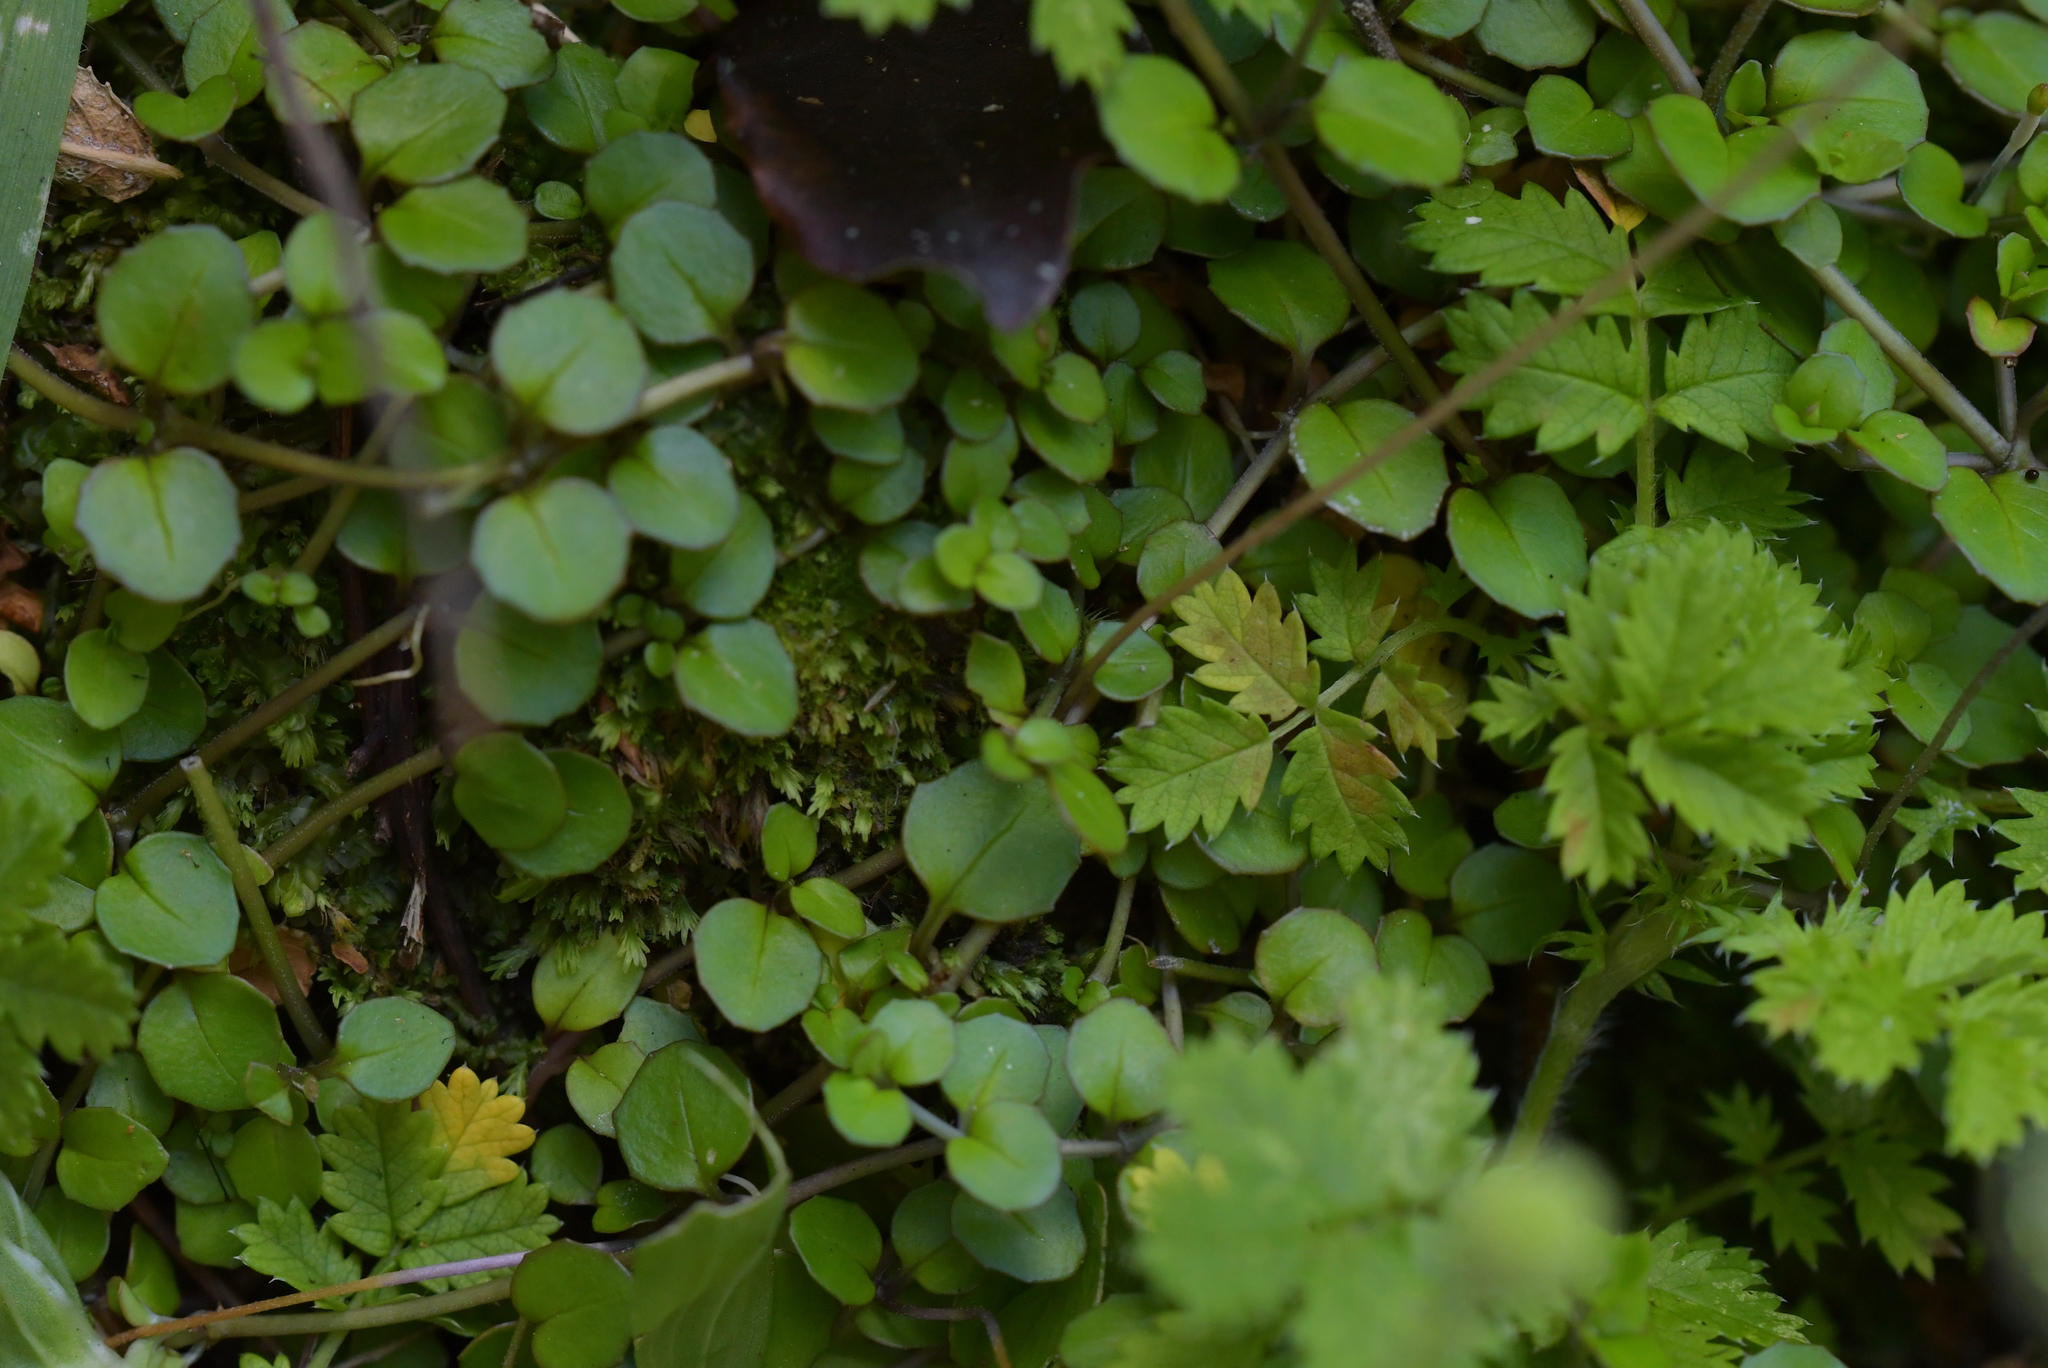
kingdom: Plantae
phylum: Tracheophyta
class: Magnoliopsida
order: Myrtales
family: Onagraceae
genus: Epilobium
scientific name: Epilobium nummularifolium
